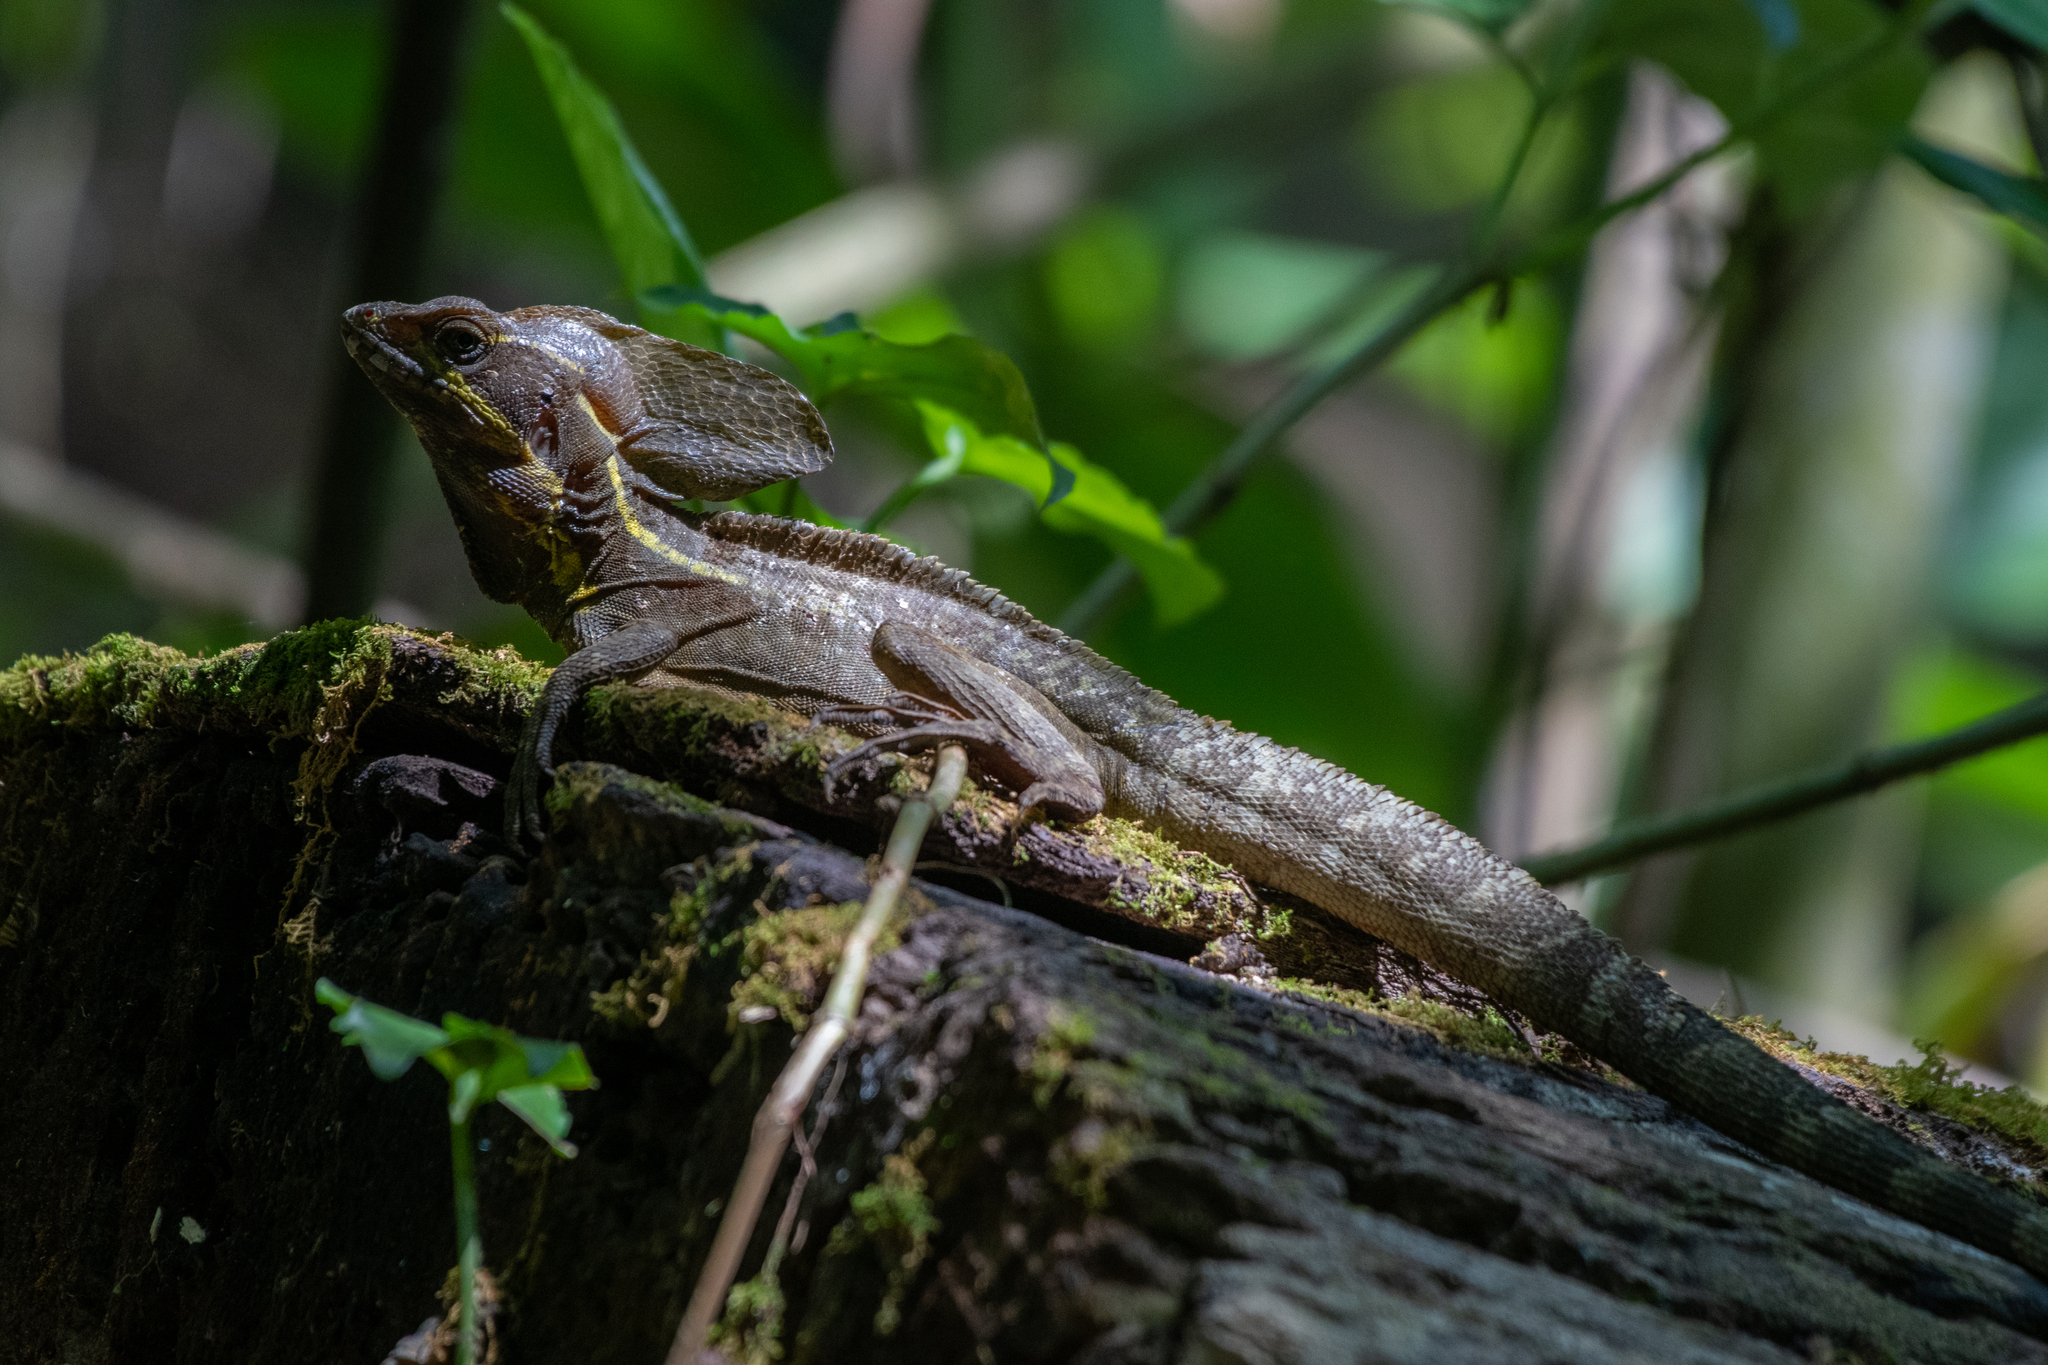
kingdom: Animalia
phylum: Chordata
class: Squamata
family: Corytophanidae
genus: Basiliscus
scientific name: Basiliscus vittatus
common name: Brown basilisk
